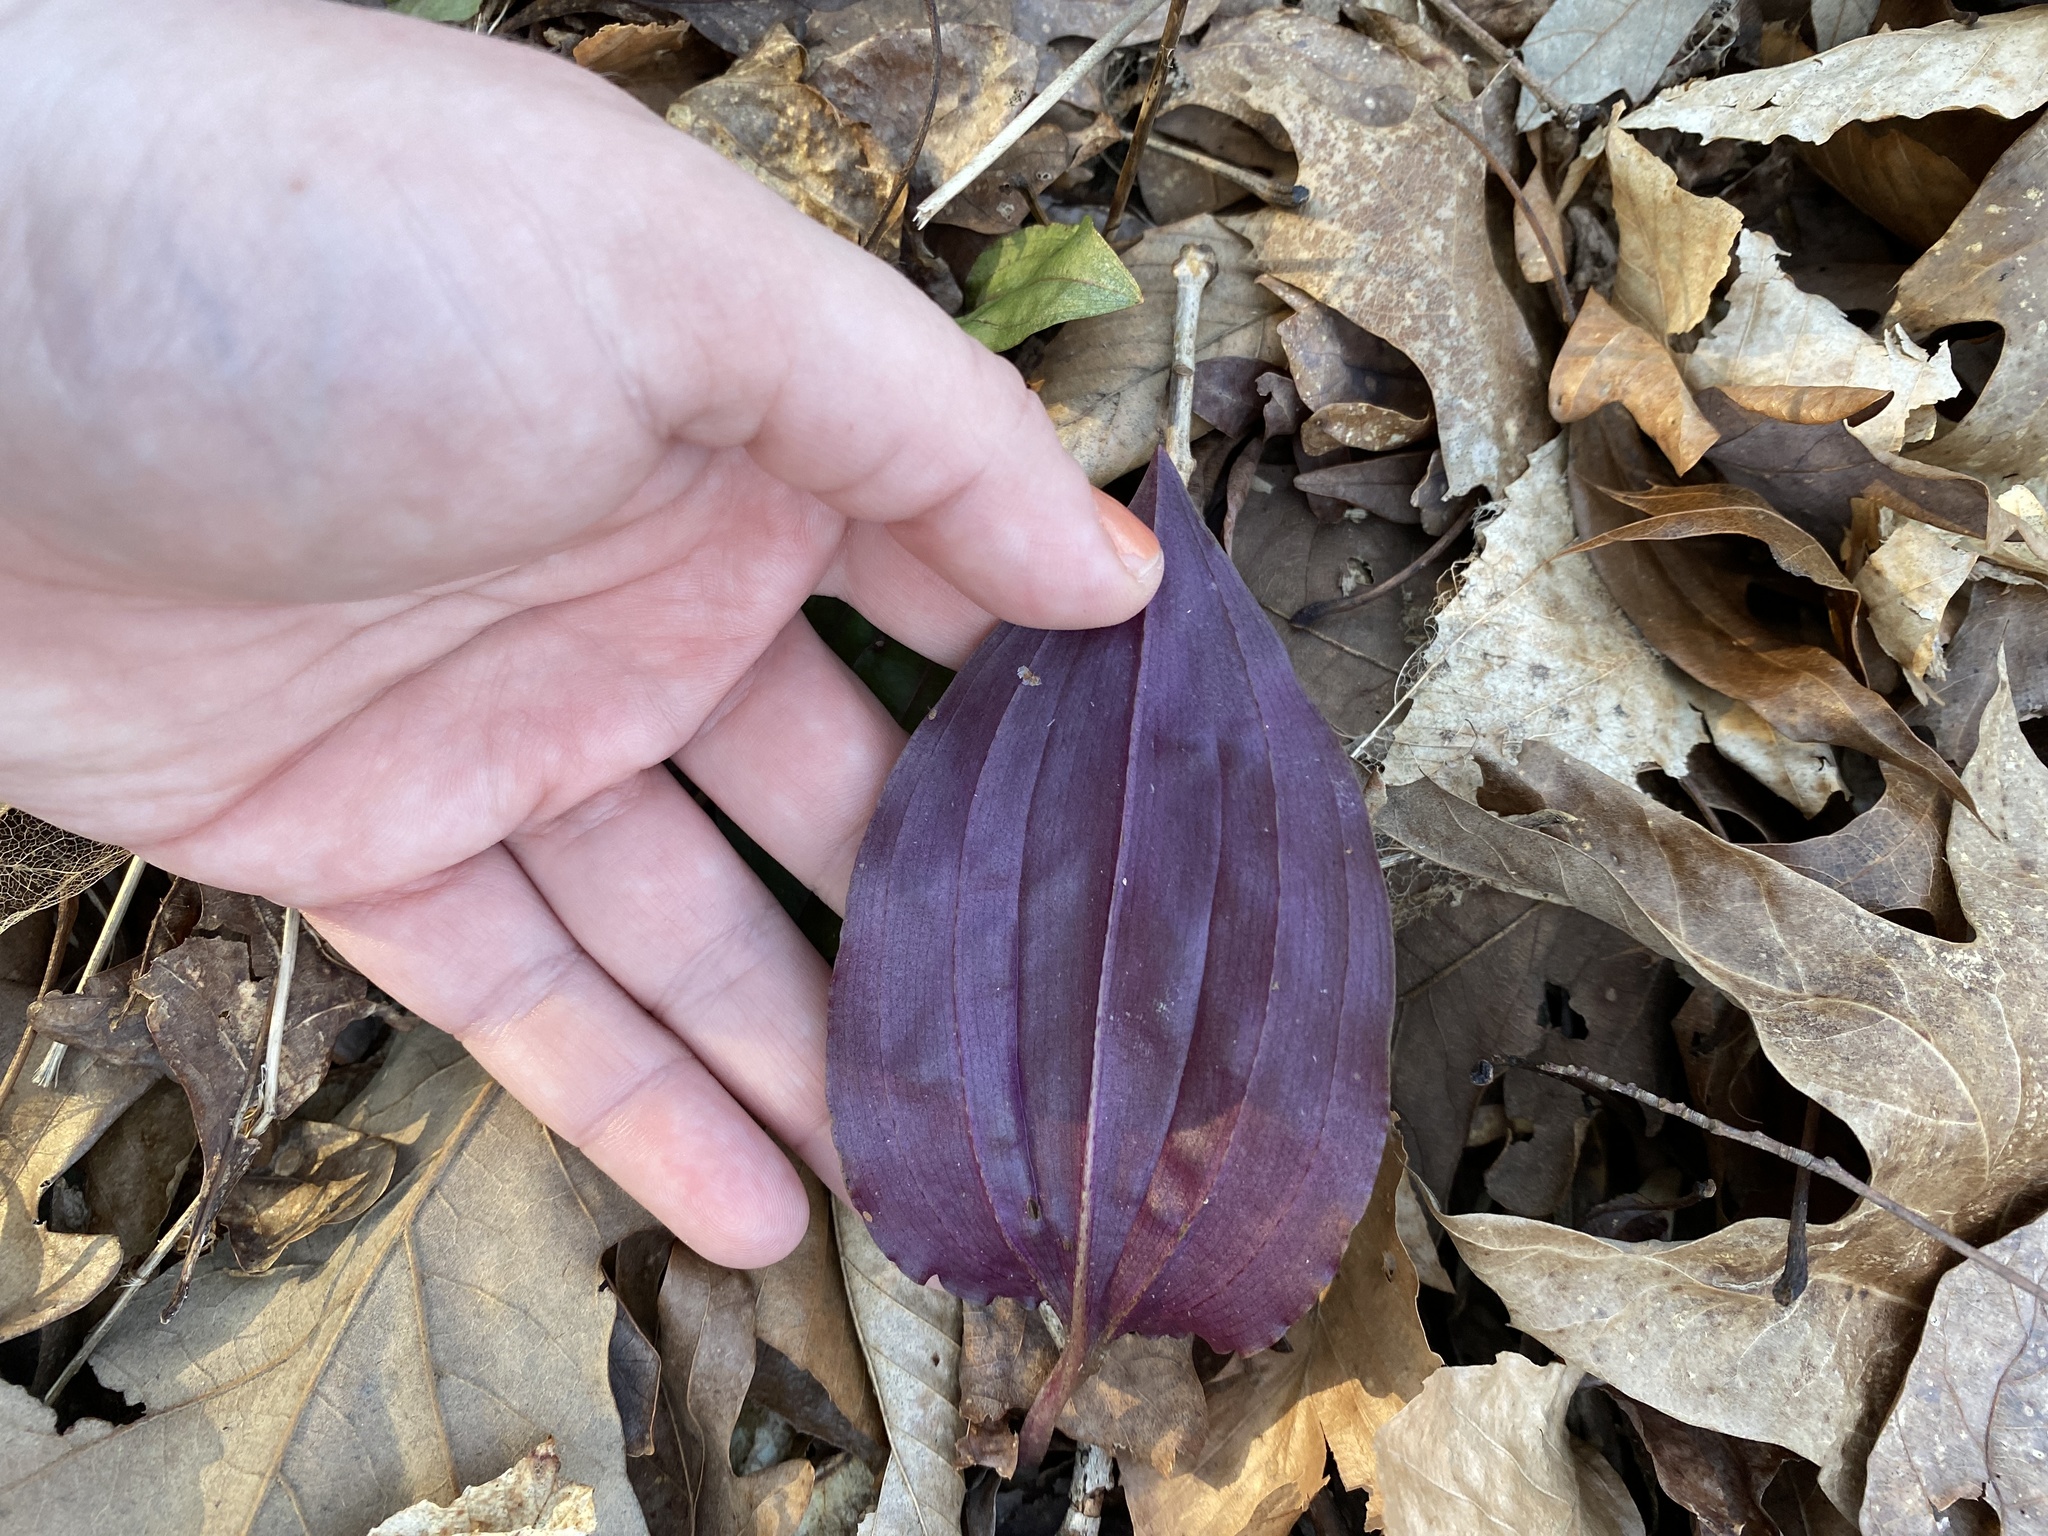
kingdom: Plantae
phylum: Tracheophyta
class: Liliopsida
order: Asparagales
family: Orchidaceae
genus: Tipularia
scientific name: Tipularia discolor
